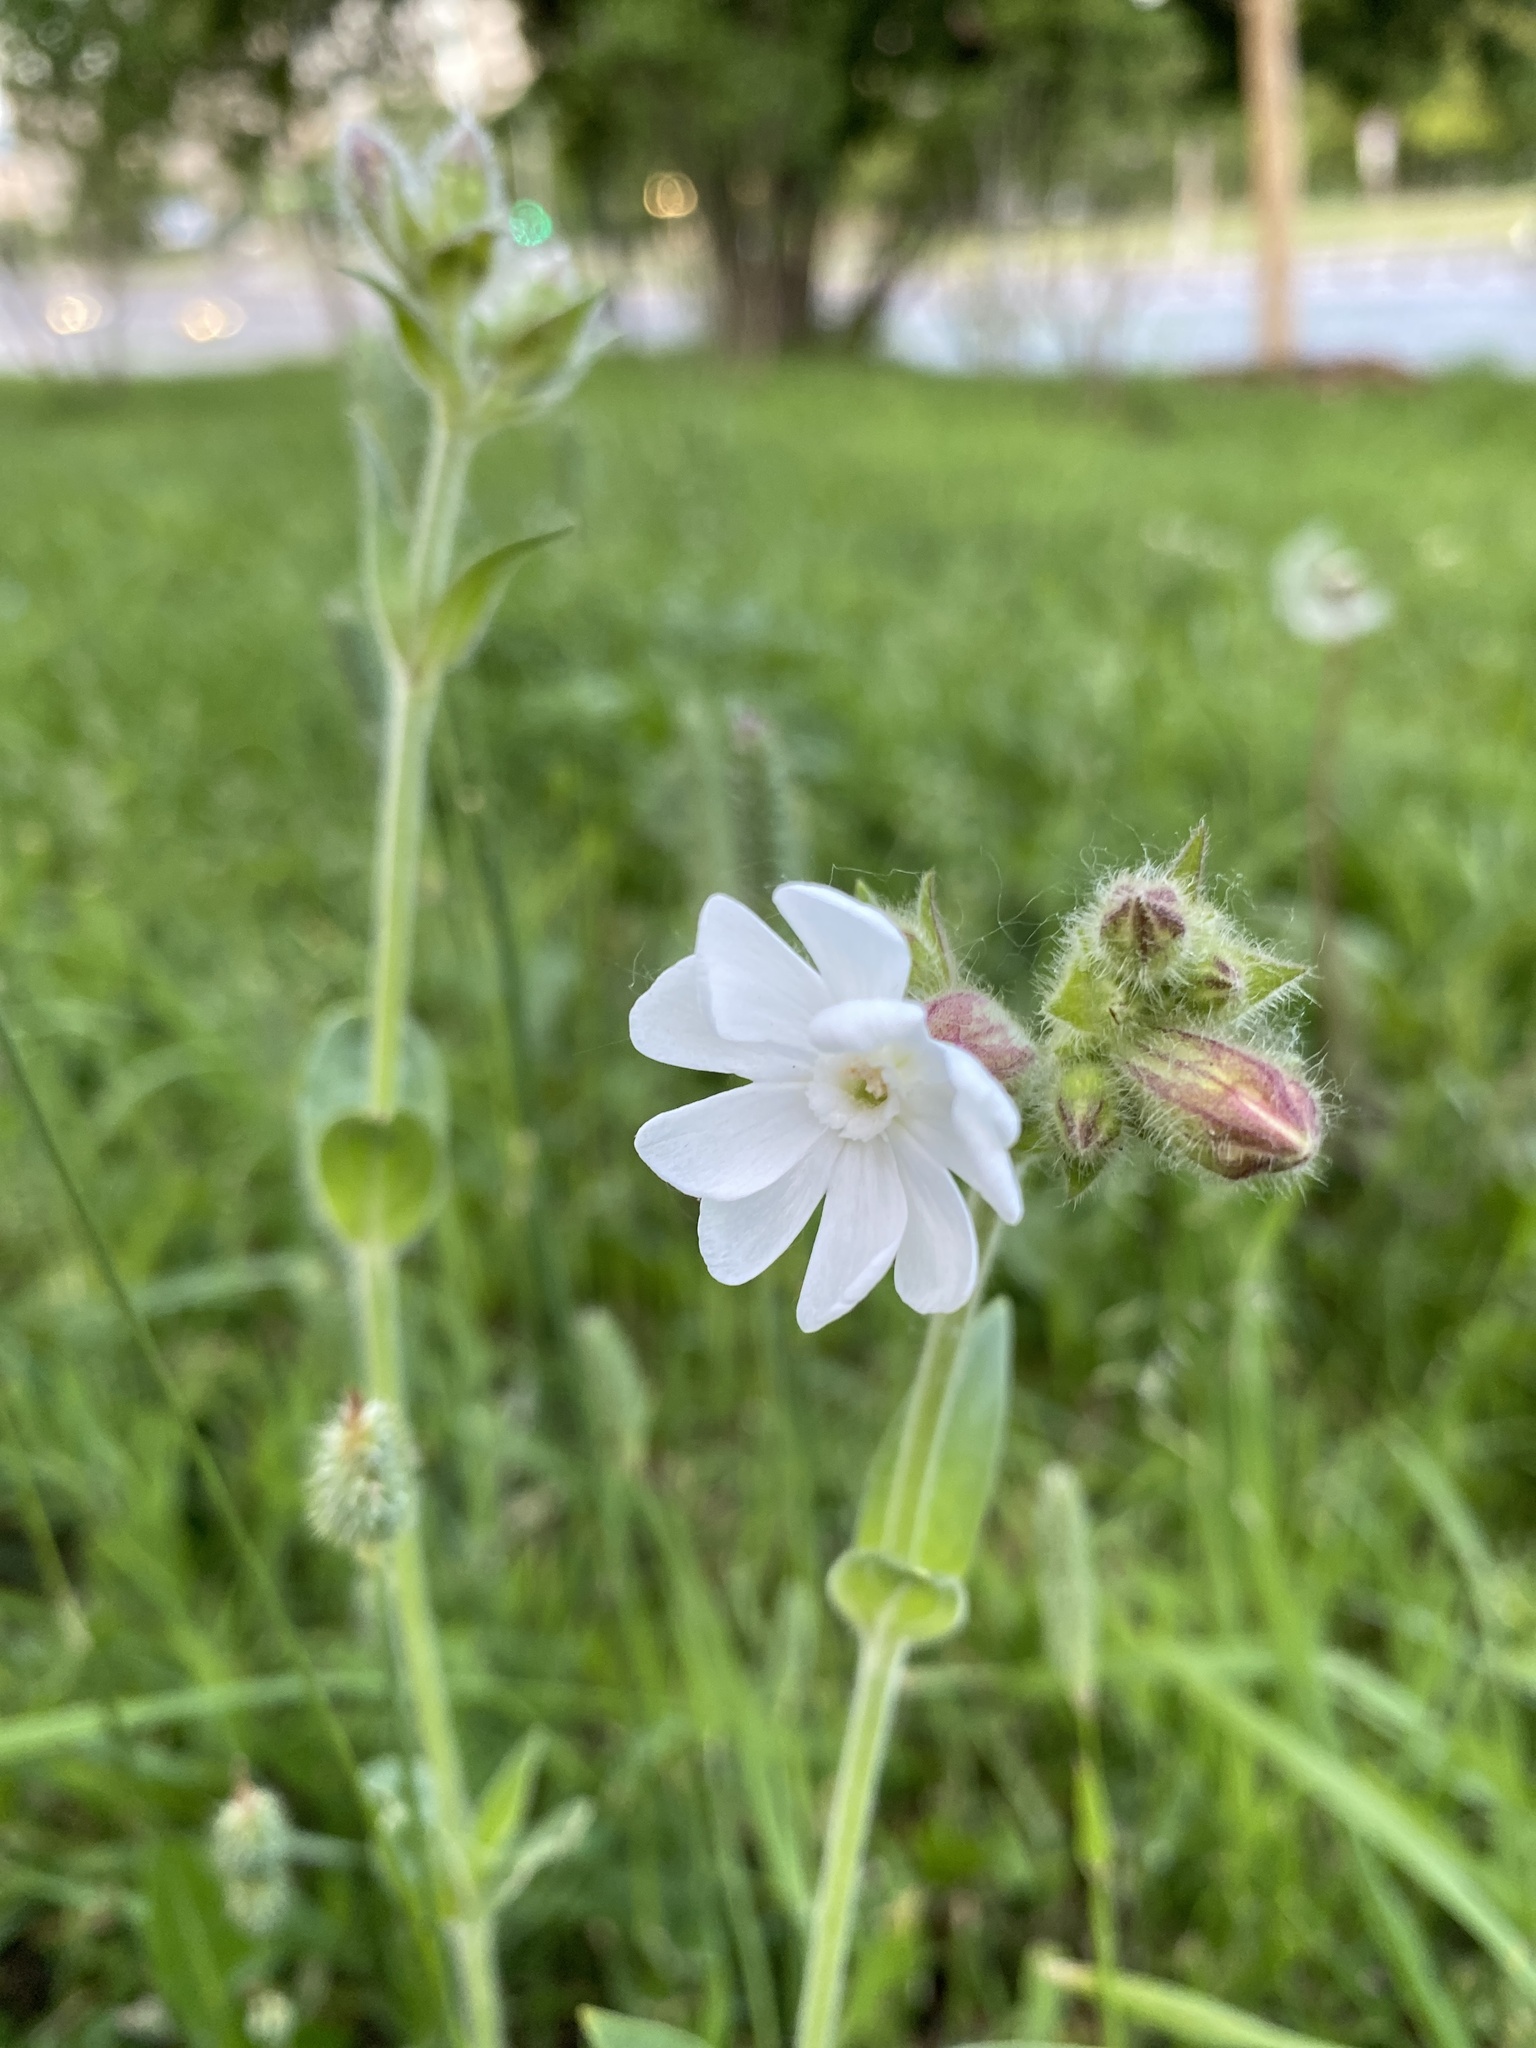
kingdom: Plantae
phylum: Tracheophyta
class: Magnoliopsida
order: Caryophyllales
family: Caryophyllaceae
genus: Silene
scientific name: Silene latifolia
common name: White campion
